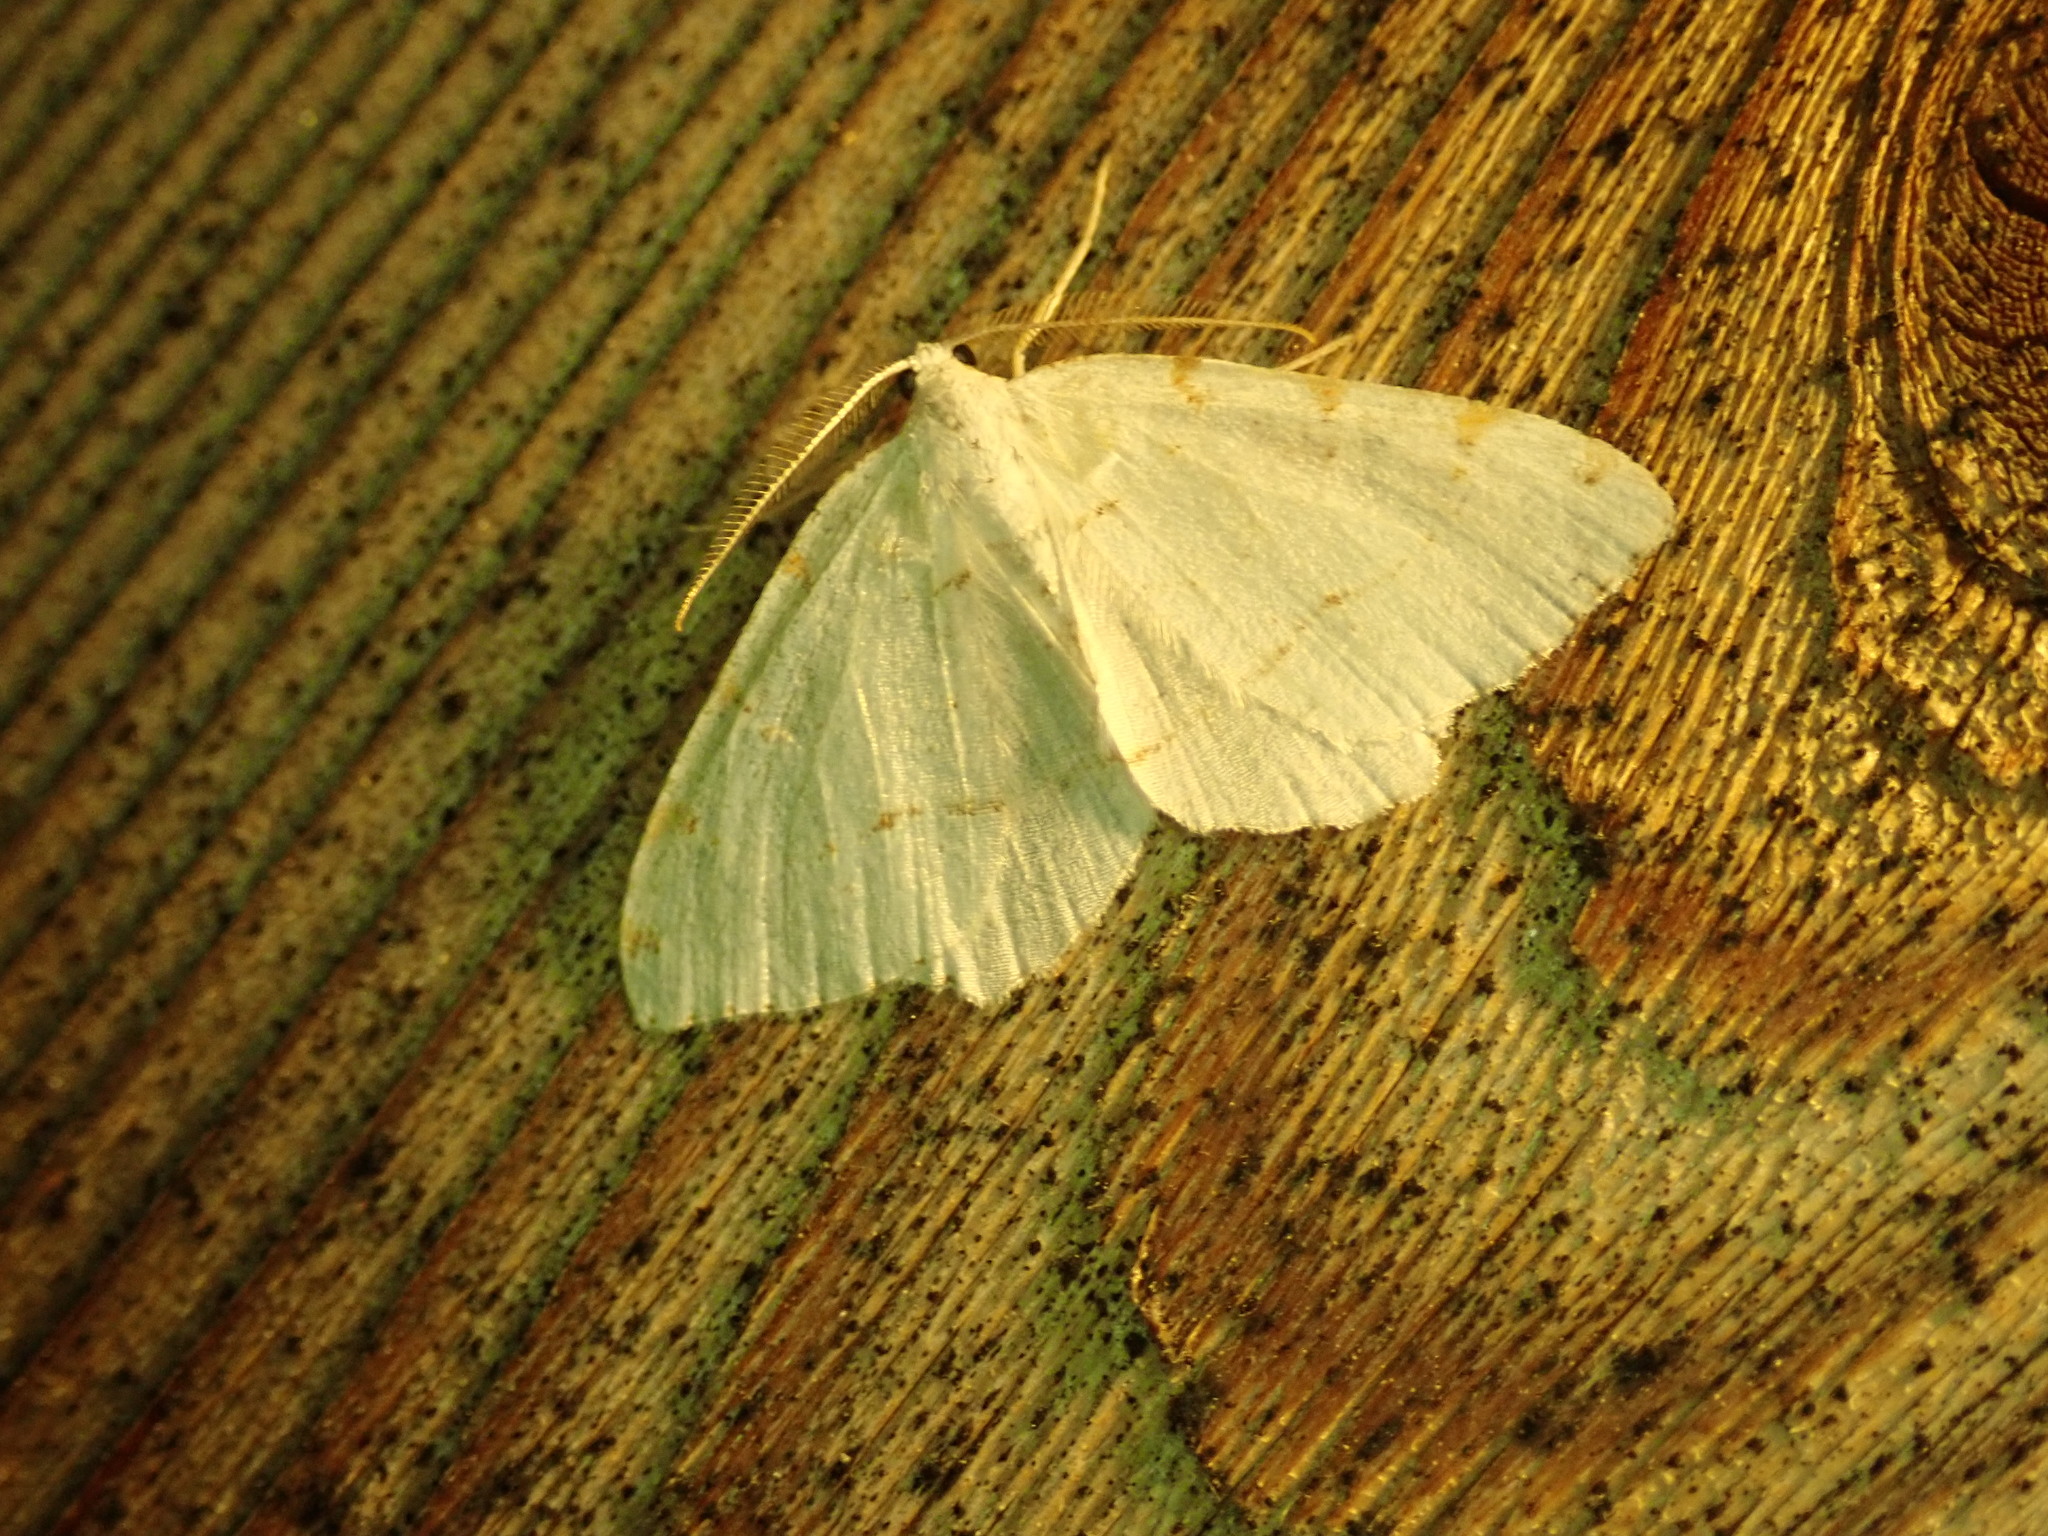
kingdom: Animalia
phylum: Arthropoda
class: Insecta
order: Lepidoptera
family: Geometridae
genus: Macaria
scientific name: Macaria pustularia
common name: Lesser maple spanworm moth
